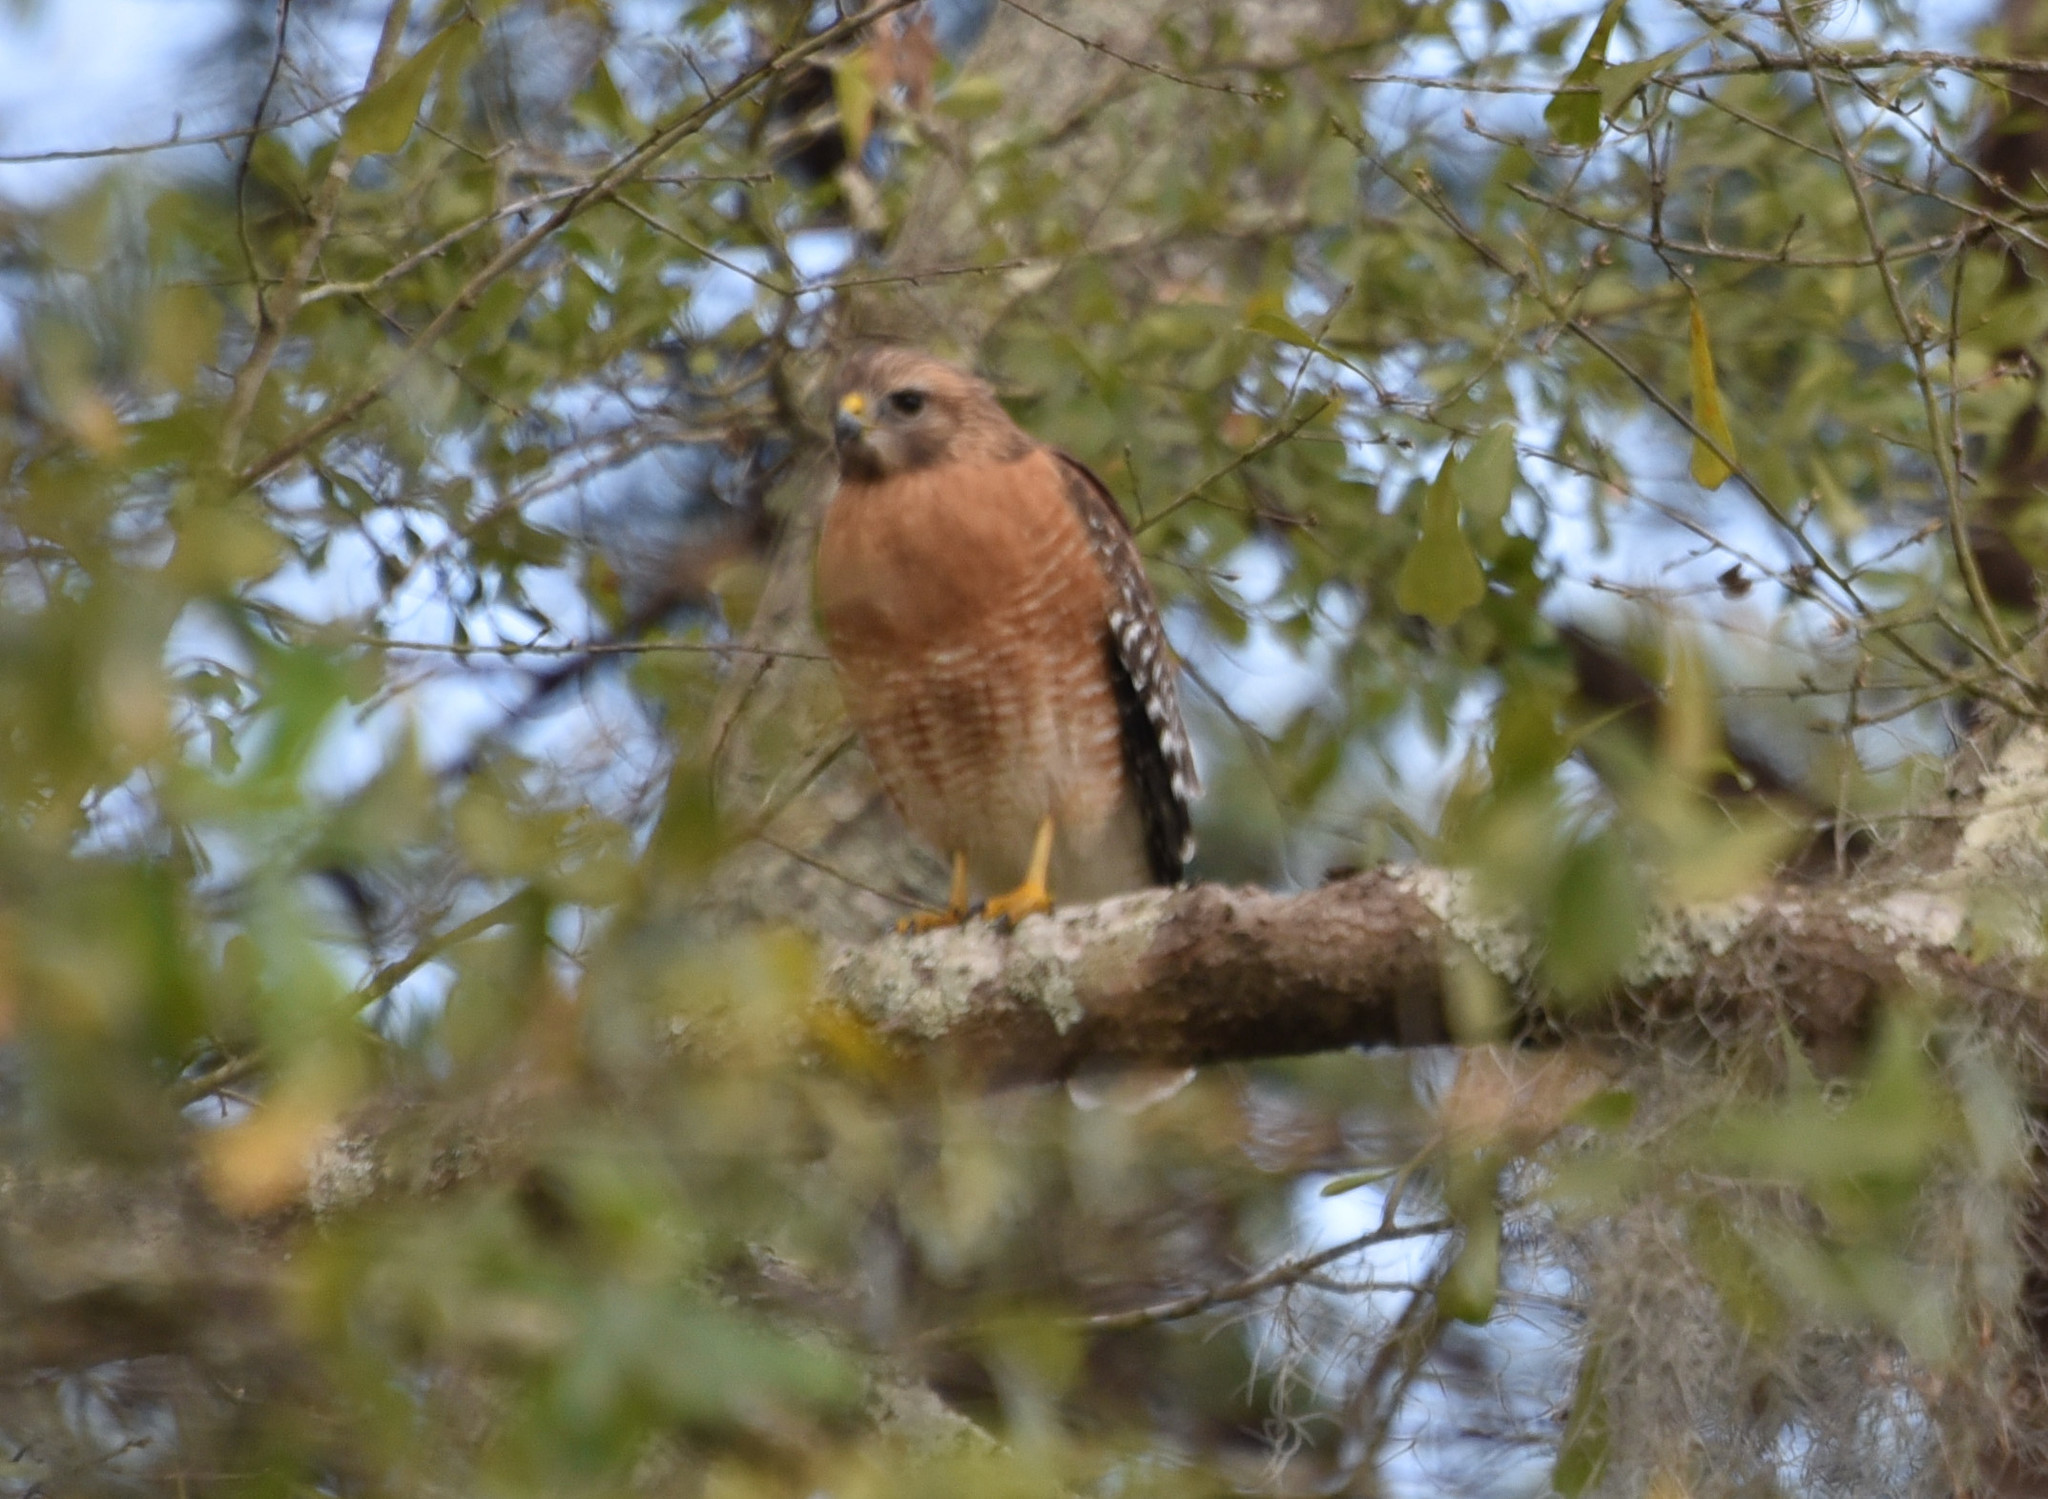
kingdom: Animalia
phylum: Chordata
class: Aves
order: Accipitriformes
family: Accipitridae
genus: Buteo
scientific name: Buteo lineatus
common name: Red-shouldered hawk
